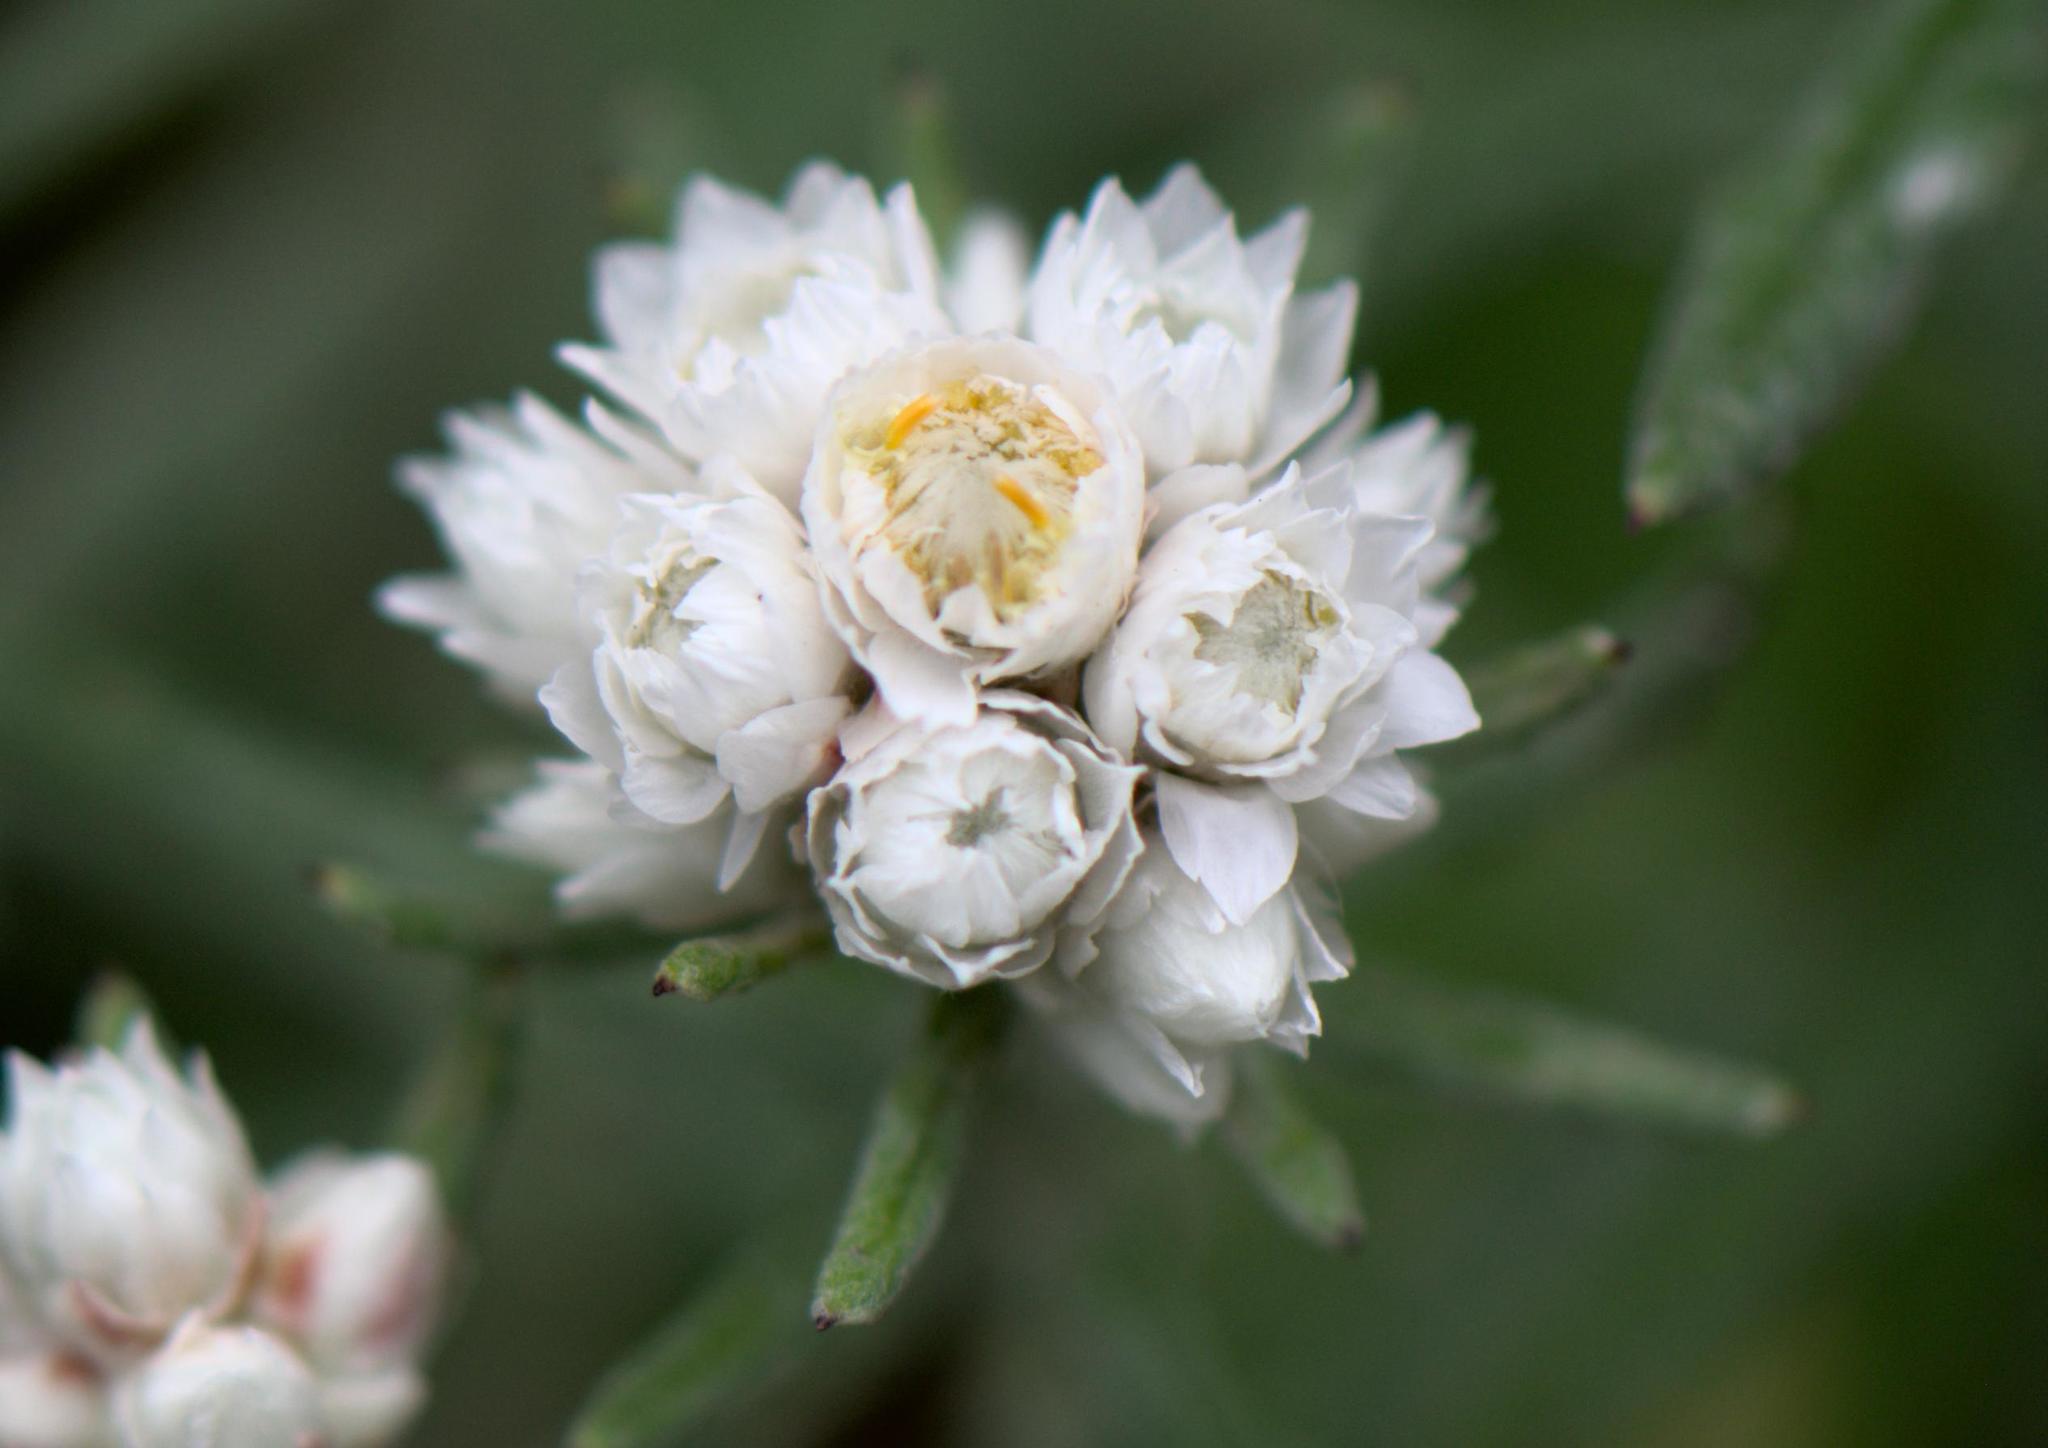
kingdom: Plantae
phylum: Tracheophyta
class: Magnoliopsida
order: Asterales
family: Asteraceae
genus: Anaphalis
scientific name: Anaphalis royleana
